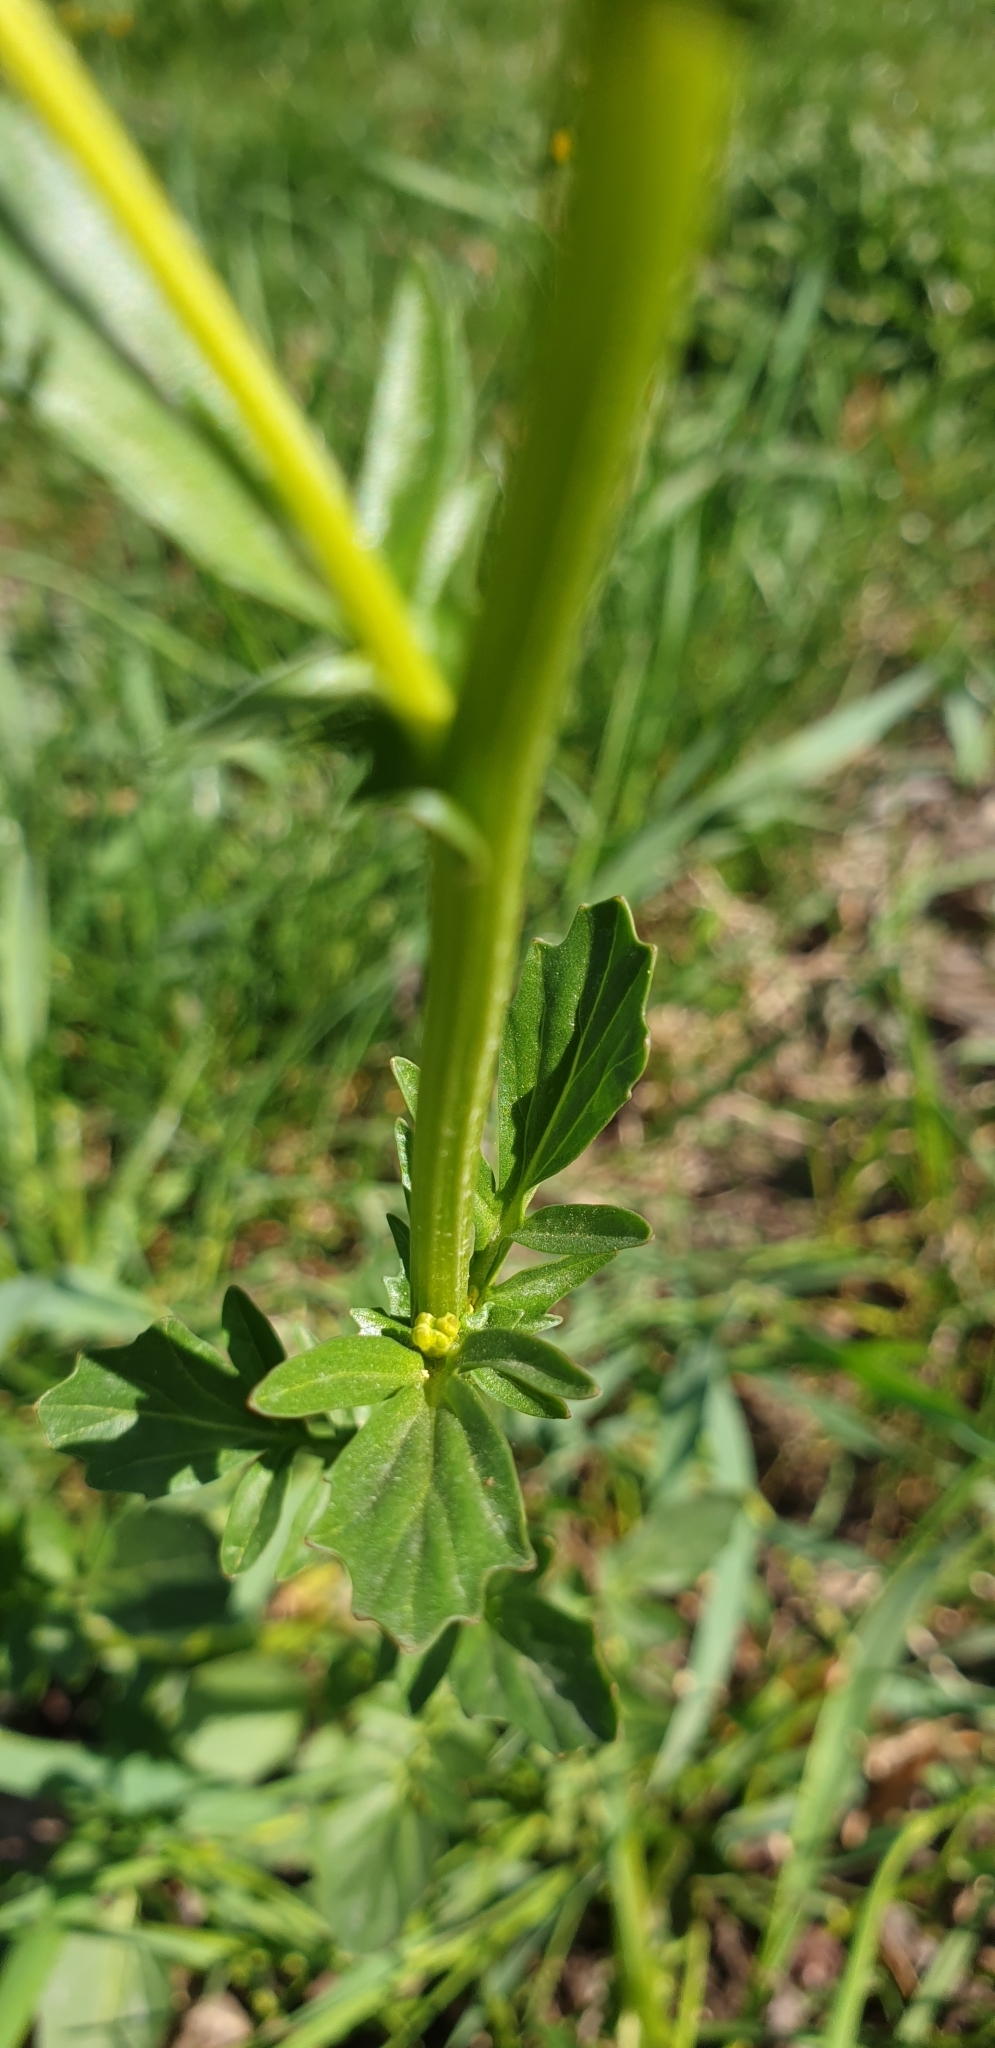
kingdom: Plantae
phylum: Tracheophyta
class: Magnoliopsida
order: Brassicales
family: Brassicaceae
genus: Barbarea
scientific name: Barbarea vulgaris
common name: Cressy-greens
